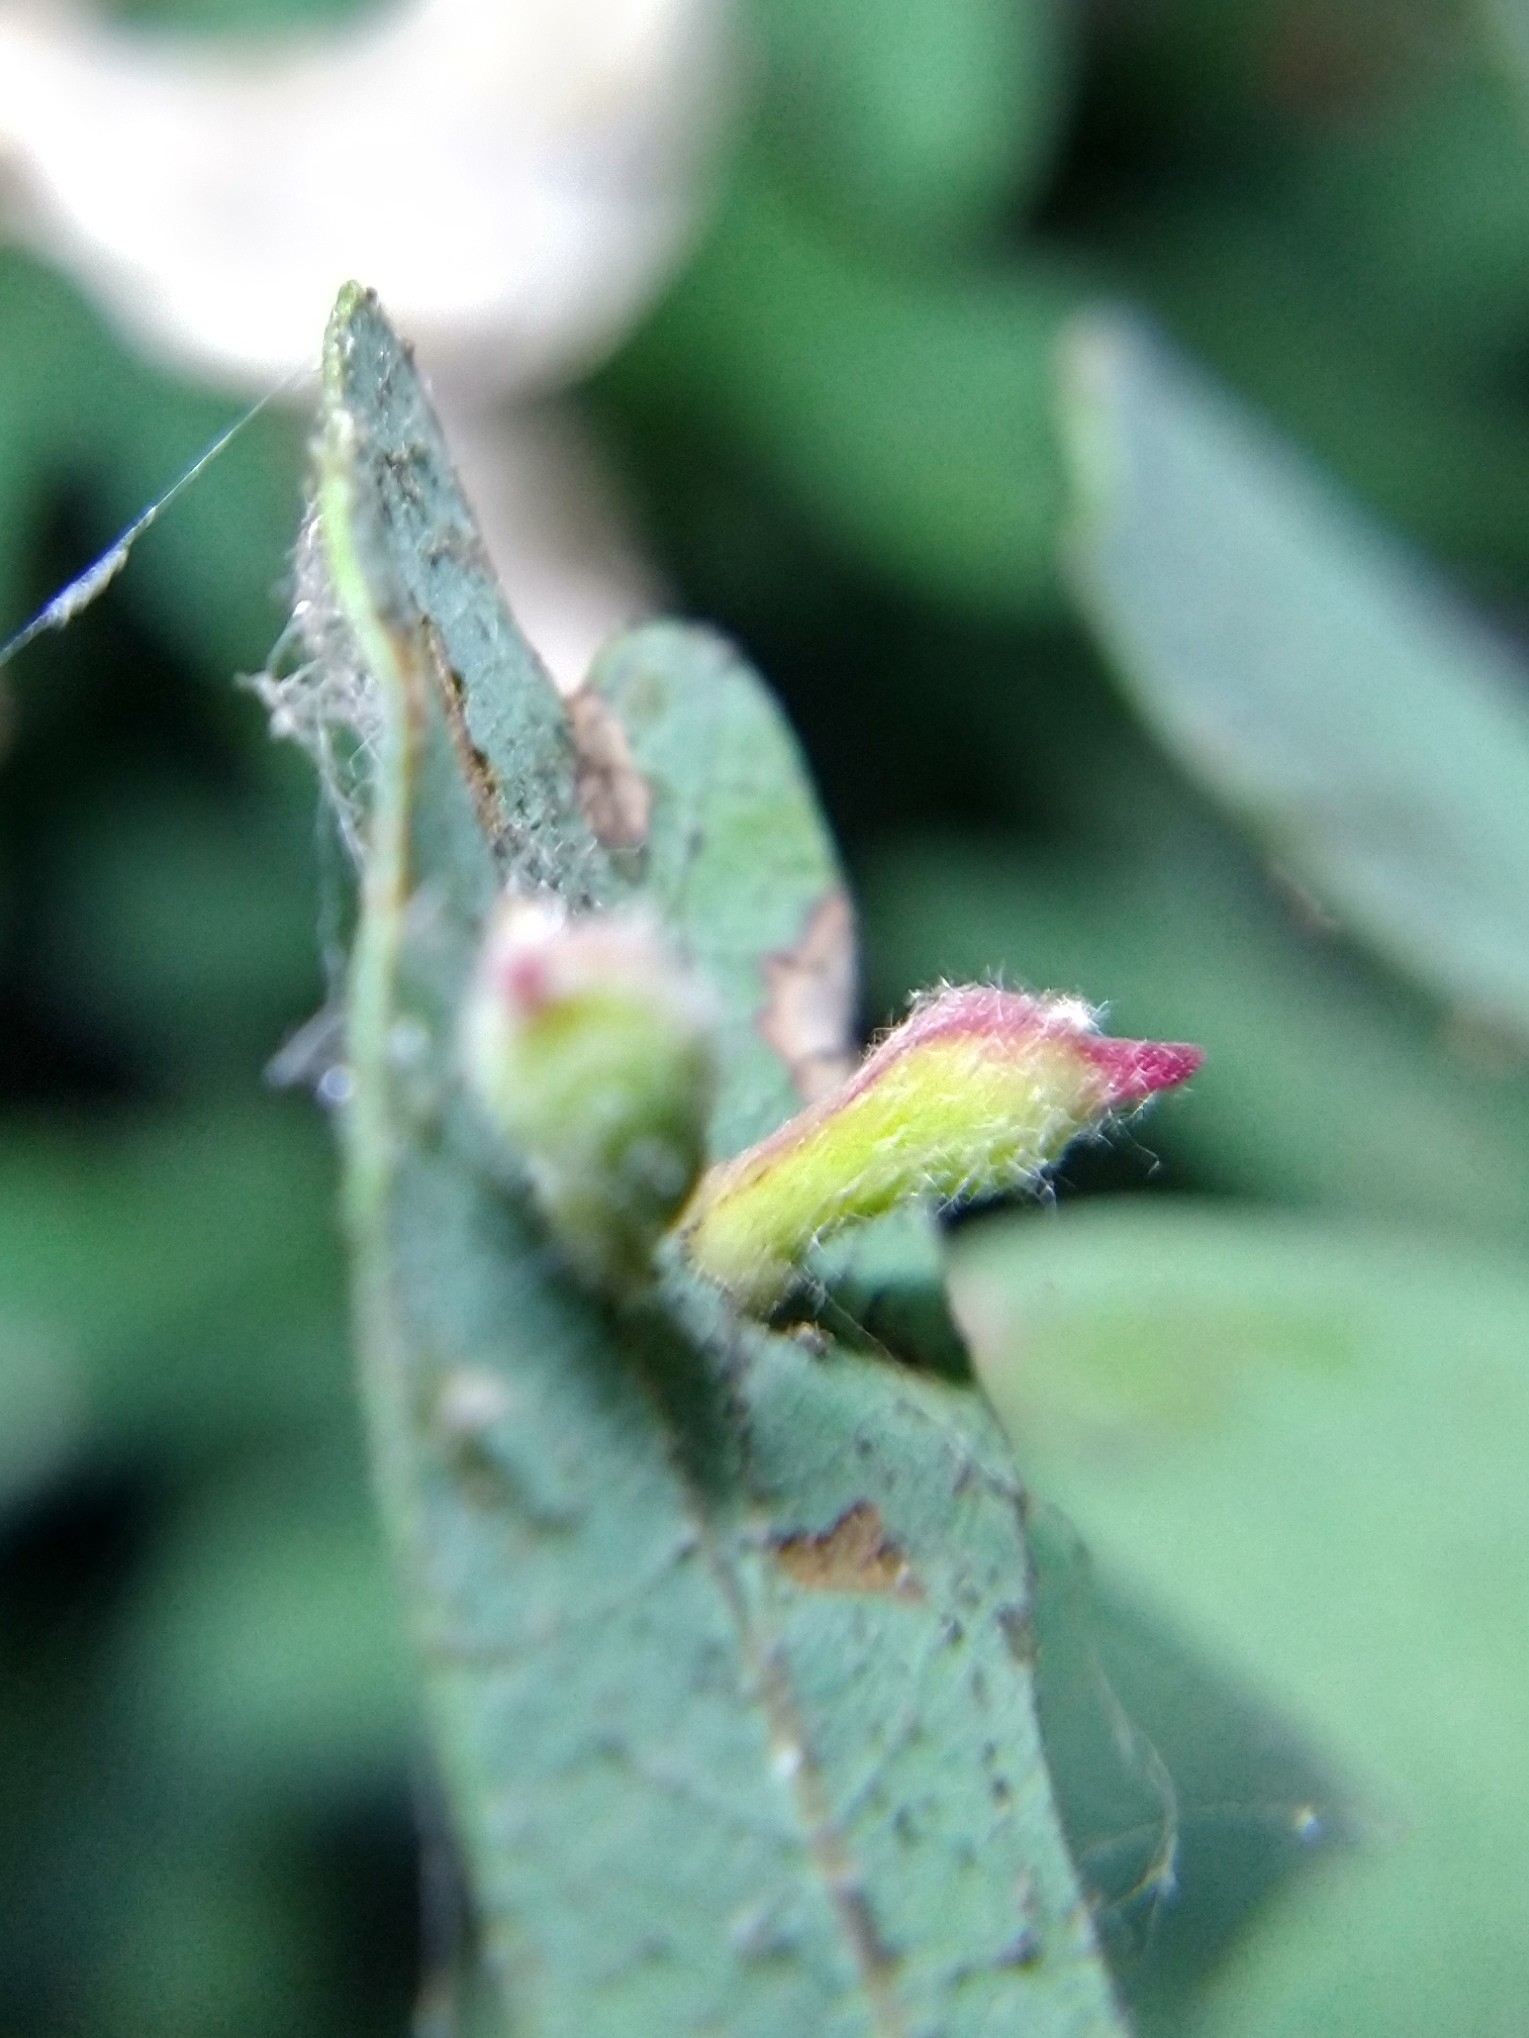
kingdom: Animalia
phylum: Arthropoda
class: Insecta
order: Hymenoptera
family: Cynipidae
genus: Atrusca
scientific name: Atrusca
